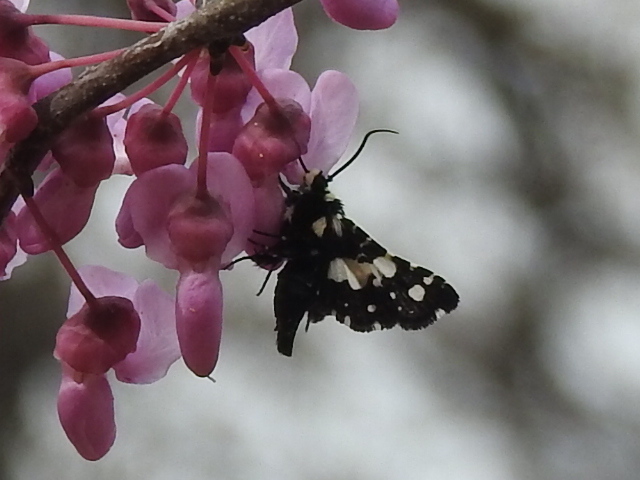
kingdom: Animalia
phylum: Arthropoda
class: Insecta
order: Lepidoptera
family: Thyrididae
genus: Pseudothyris
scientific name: Pseudothyris sepulchralis
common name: Mournful thyris moth
